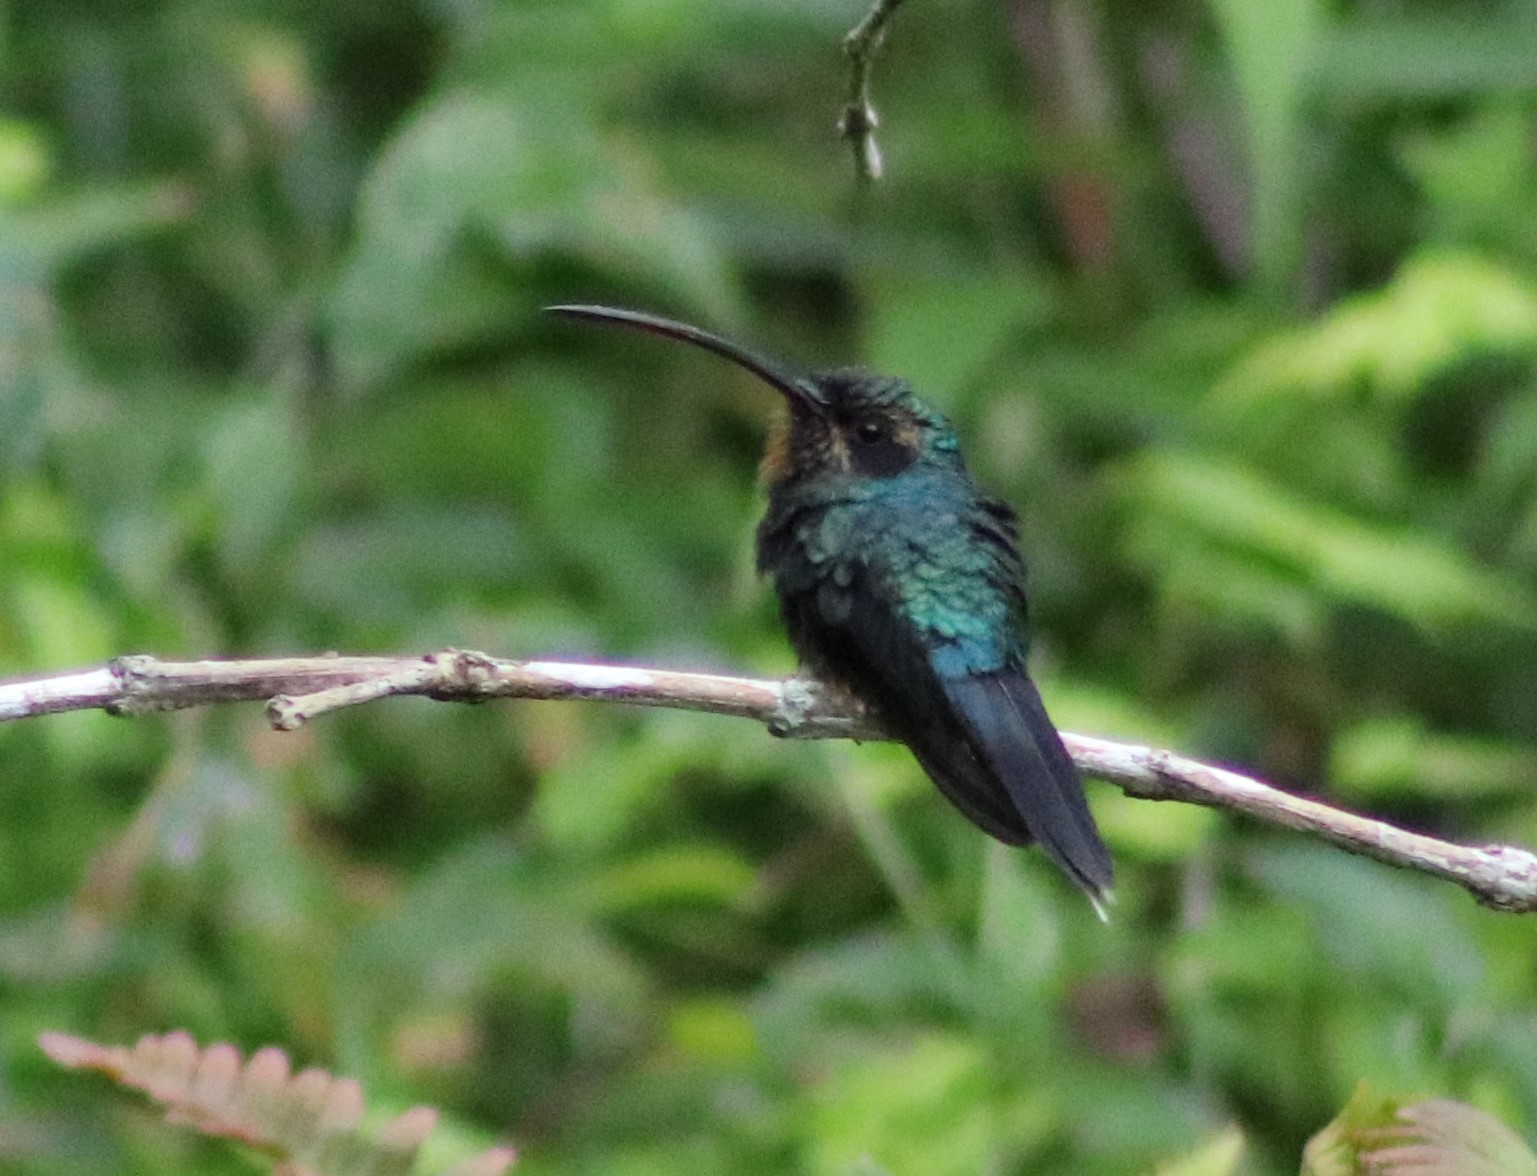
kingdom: Animalia
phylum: Chordata
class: Aves
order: Apodiformes
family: Trochilidae
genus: Phaethornis
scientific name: Phaethornis guy
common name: Green hermit
